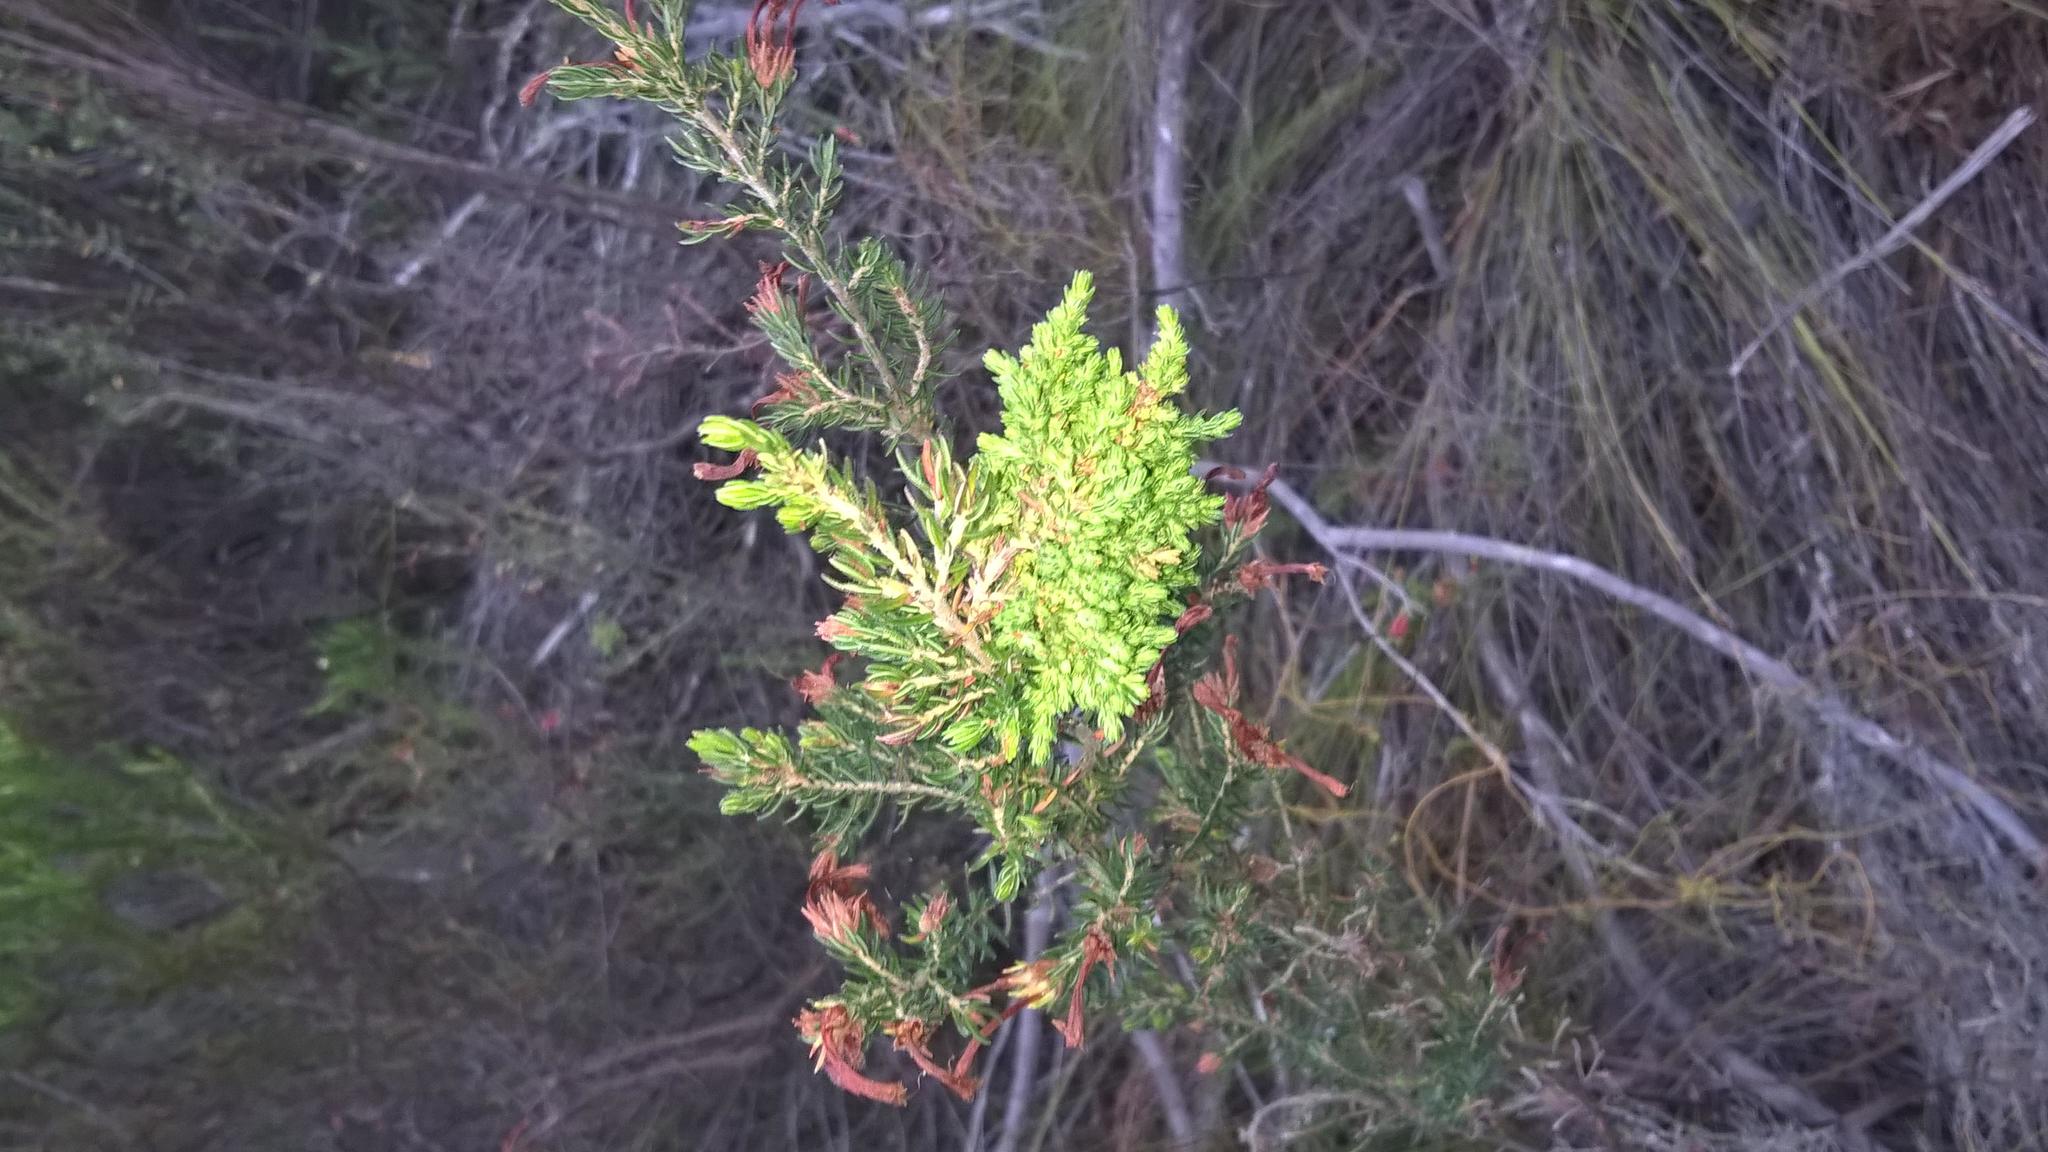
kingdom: Plantae
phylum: Tracheophyta
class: Magnoliopsida
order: Ericales
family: Ericaceae
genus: Erica
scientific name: Erica discolor
